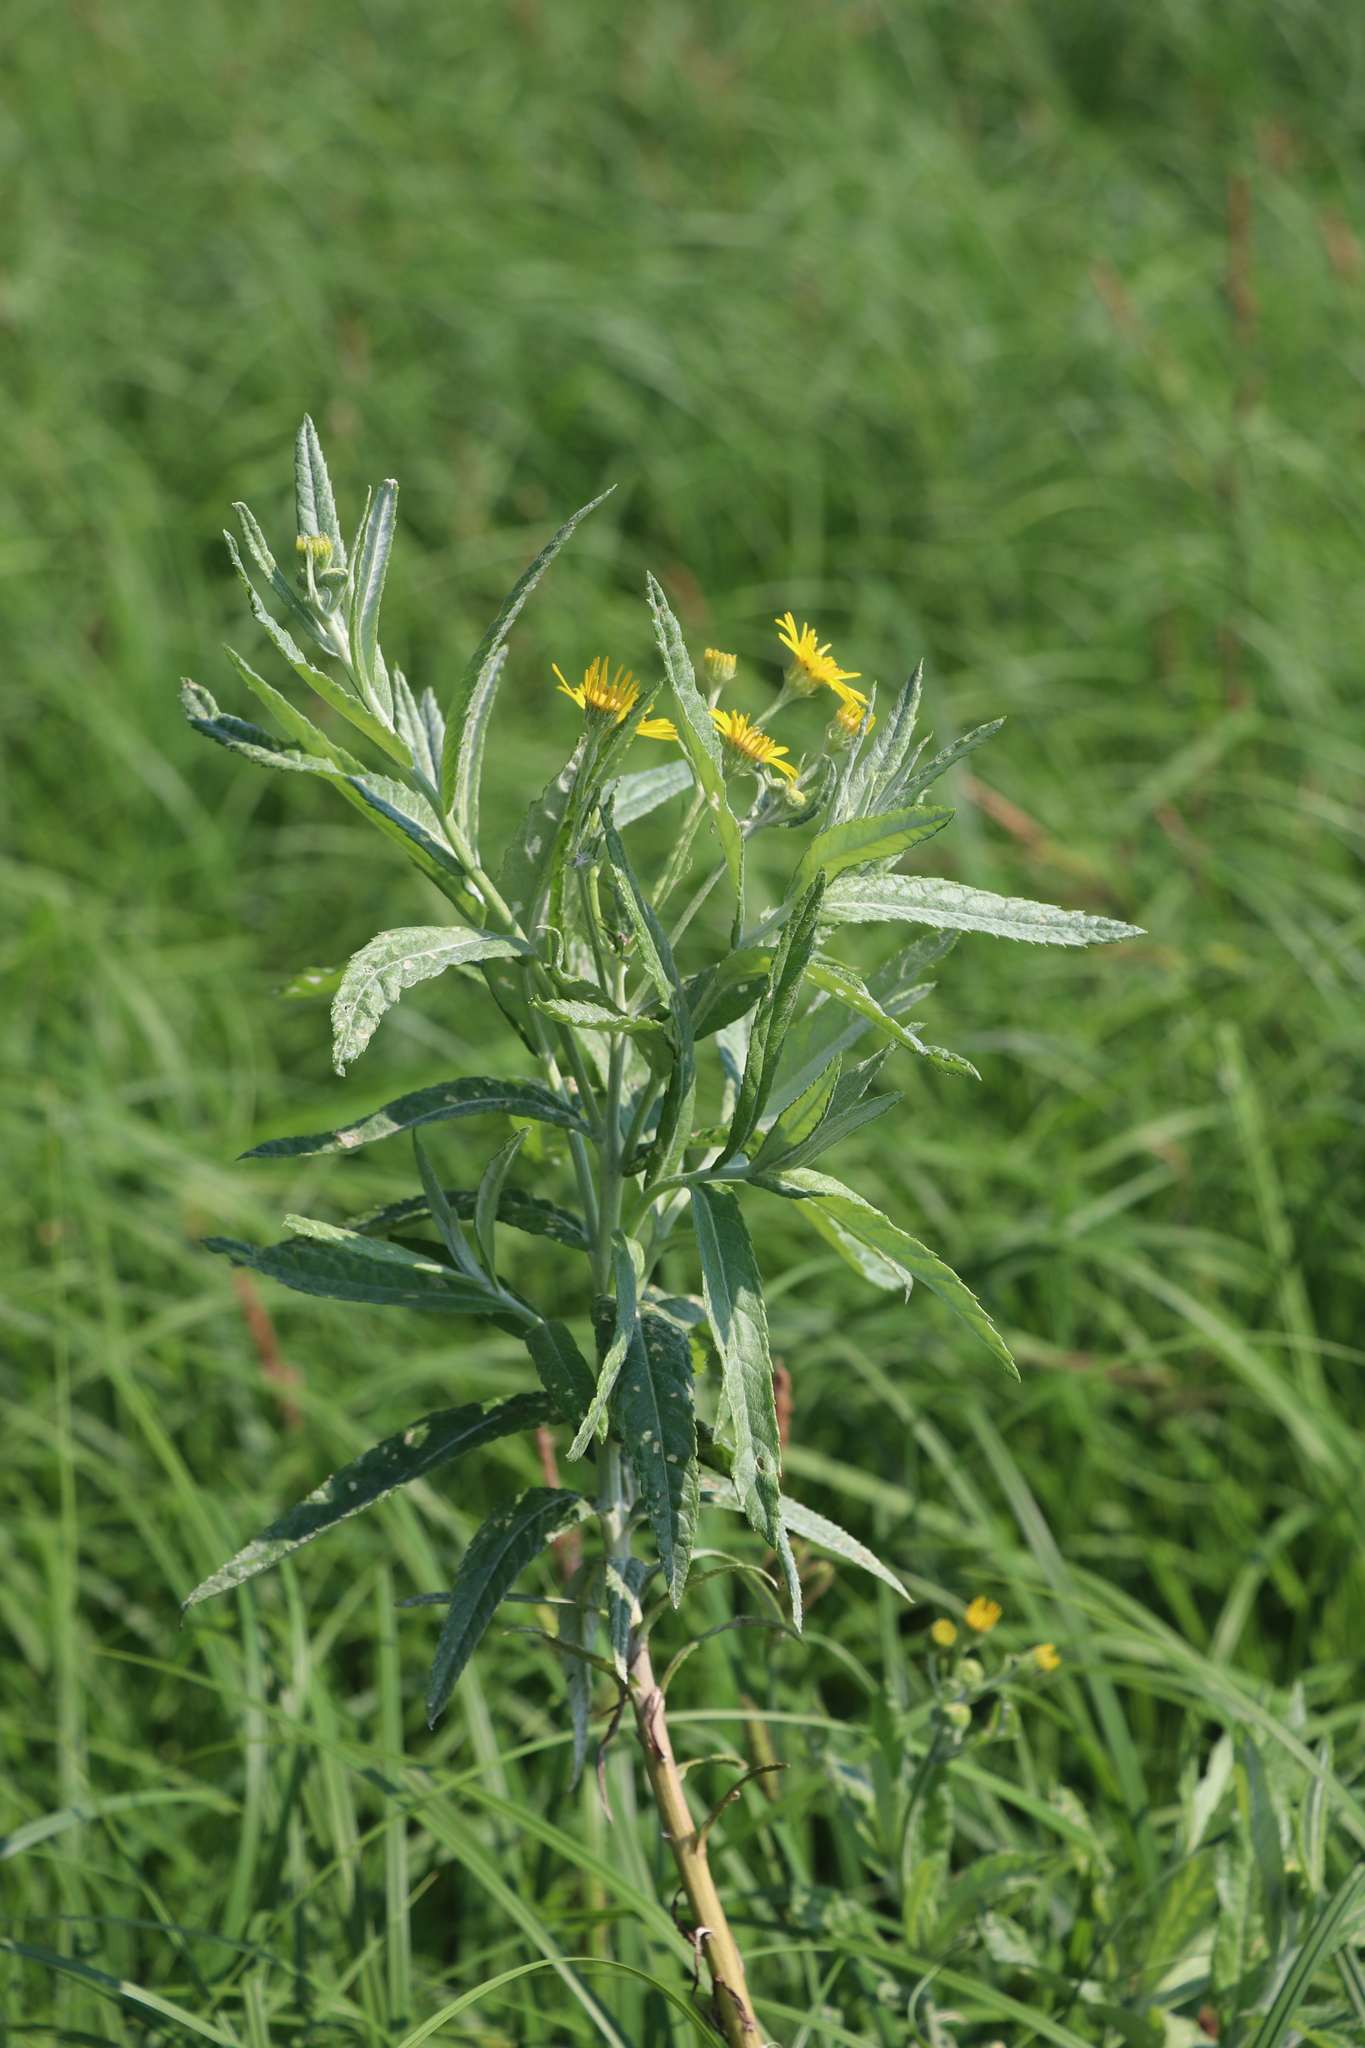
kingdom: Plantae
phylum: Tracheophyta
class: Magnoliopsida
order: Asterales
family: Asteraceae
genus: Jacobaea
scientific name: Jacobaea paludosa
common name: Fen ragwort
